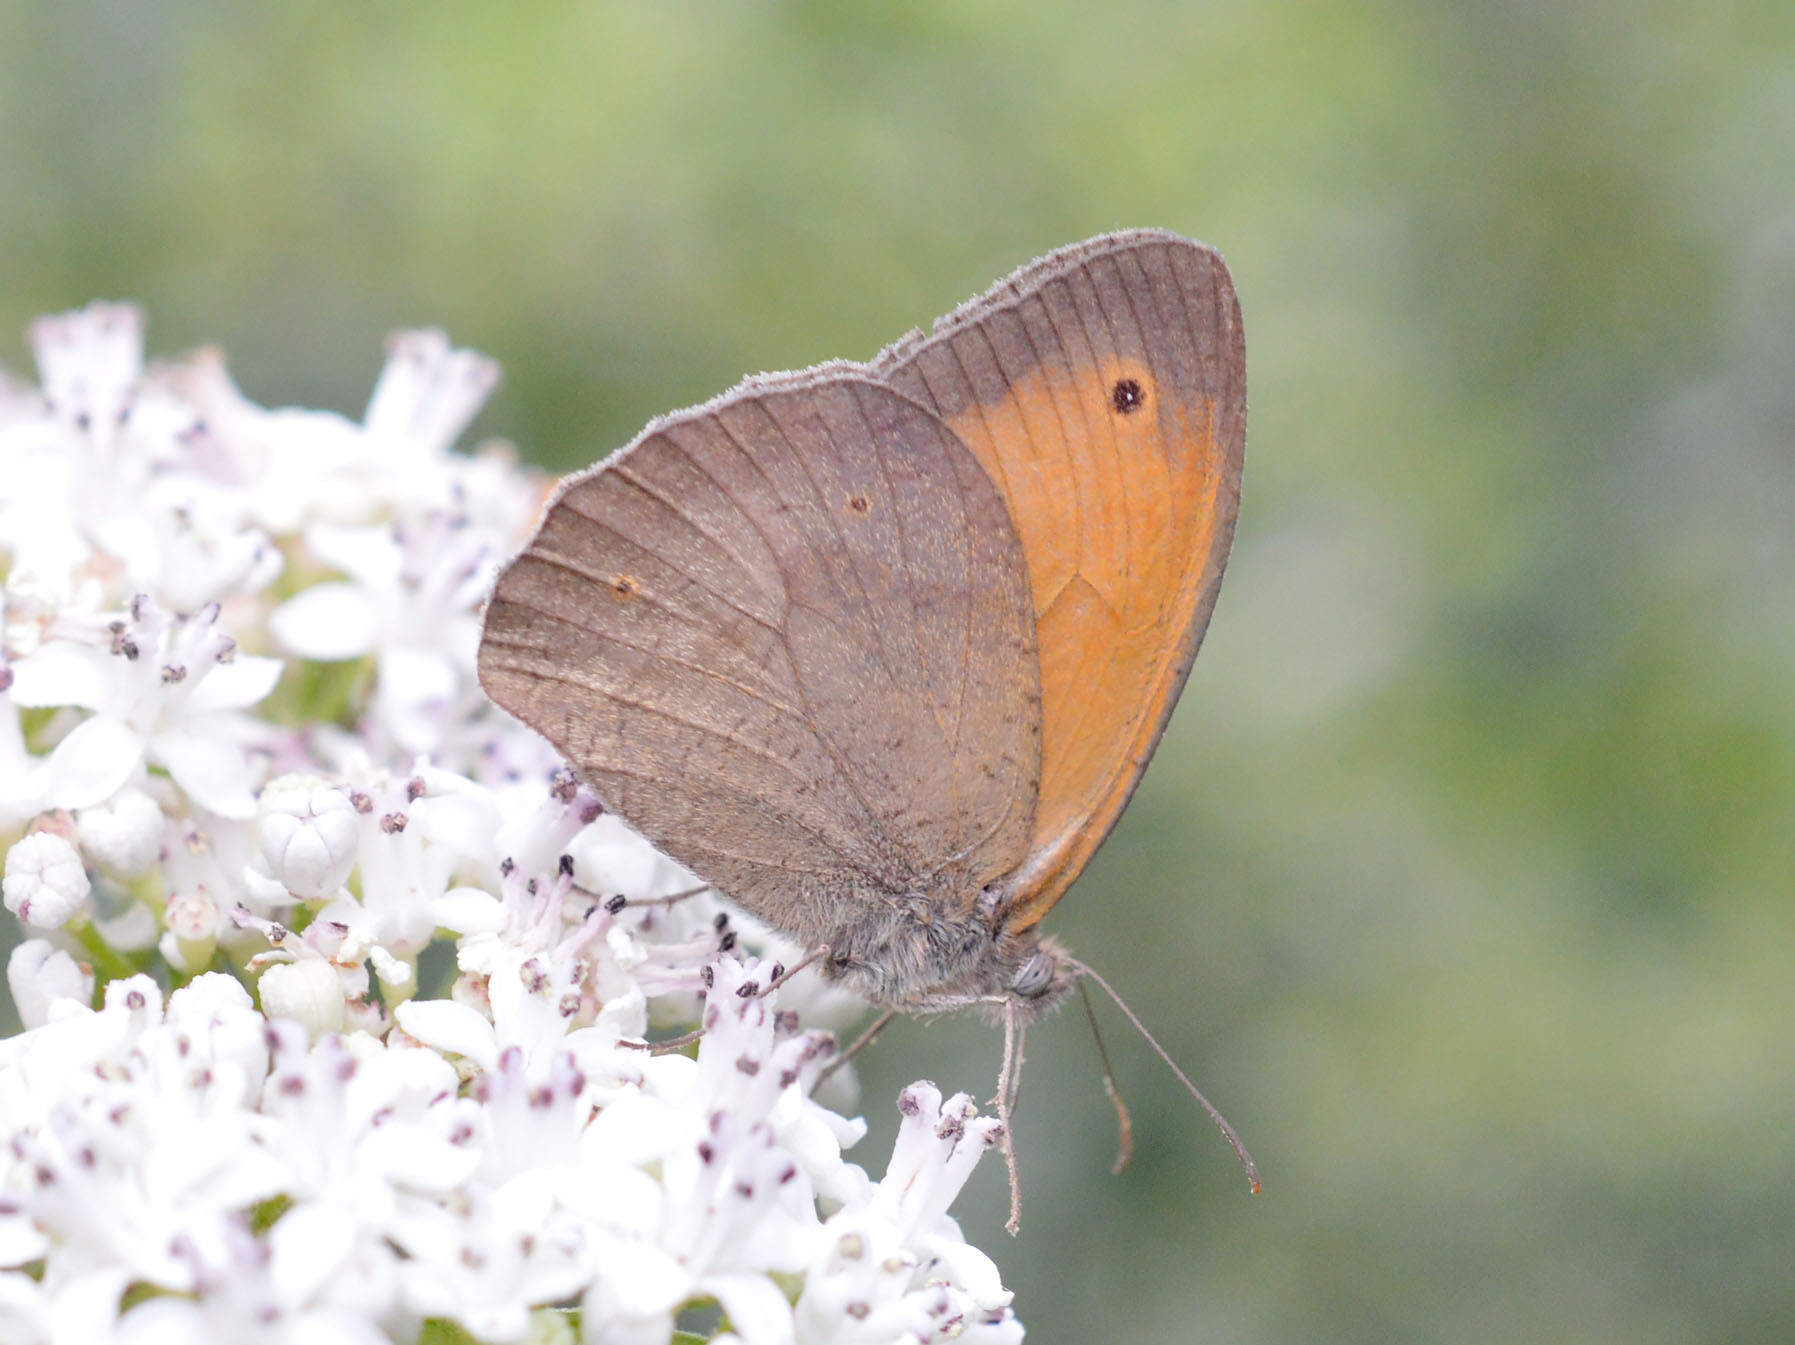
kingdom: Animalia
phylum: Arthropoda
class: Insecta
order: Lepidoptera
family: Nymphalidae
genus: Maniola
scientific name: Maniola jurtina
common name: Meadow brown
